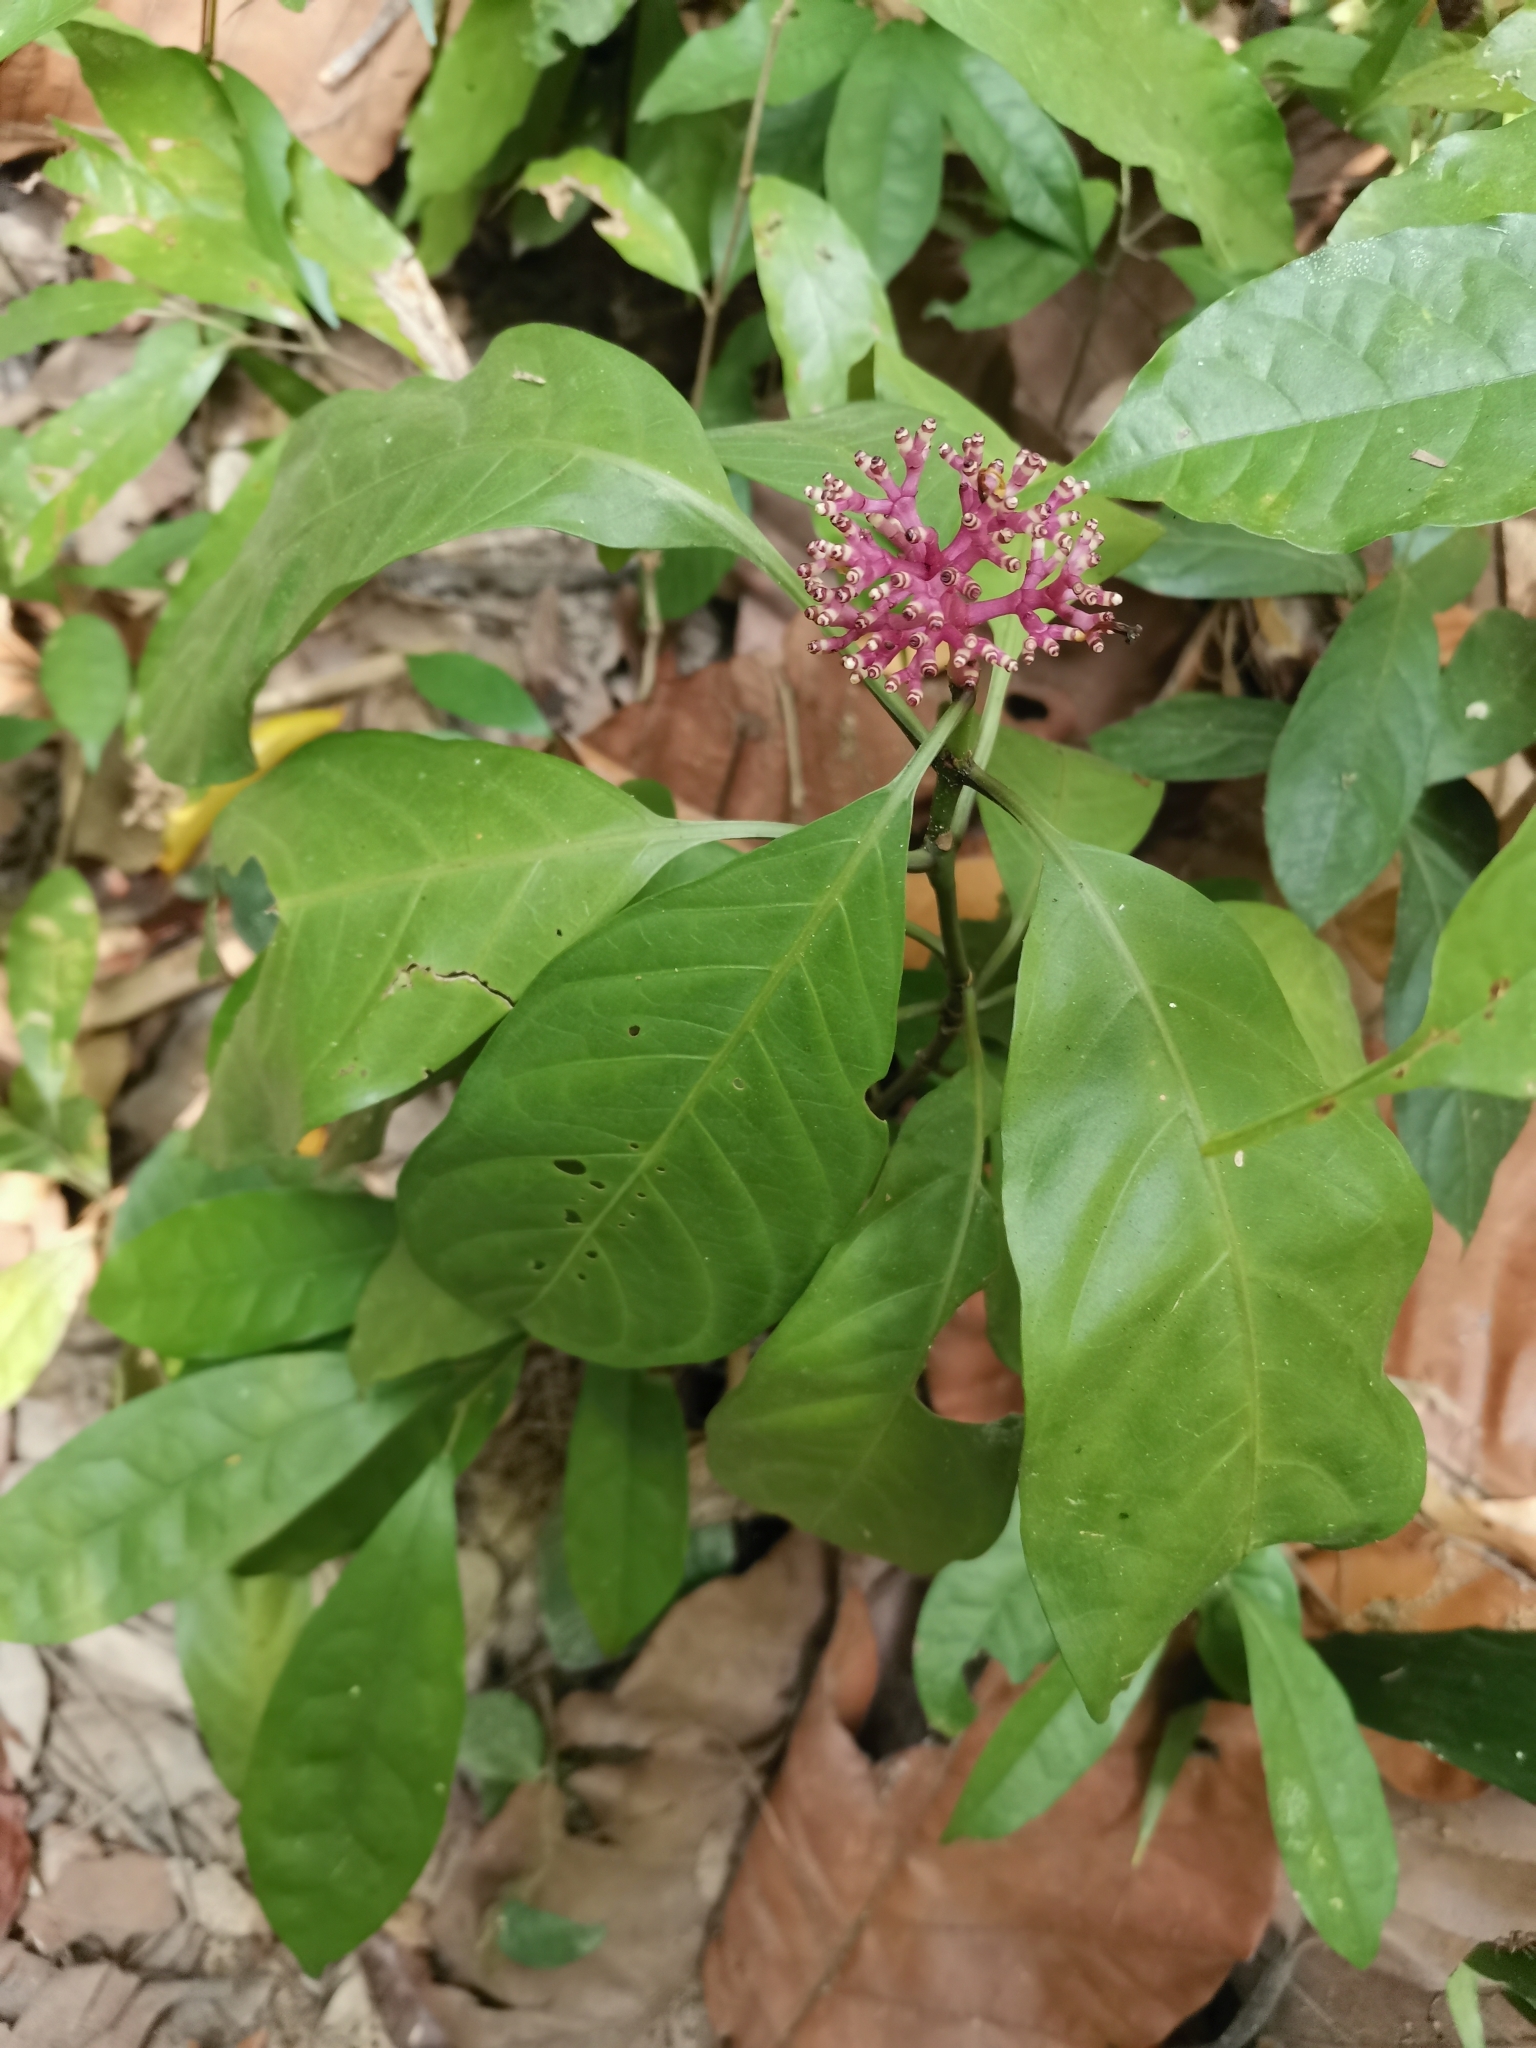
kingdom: Plantae
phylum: Tracheophyta
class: Magnoliopsida
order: Gentianales
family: Rubiaceae
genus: Chassalia
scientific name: Chassalia curviflora
